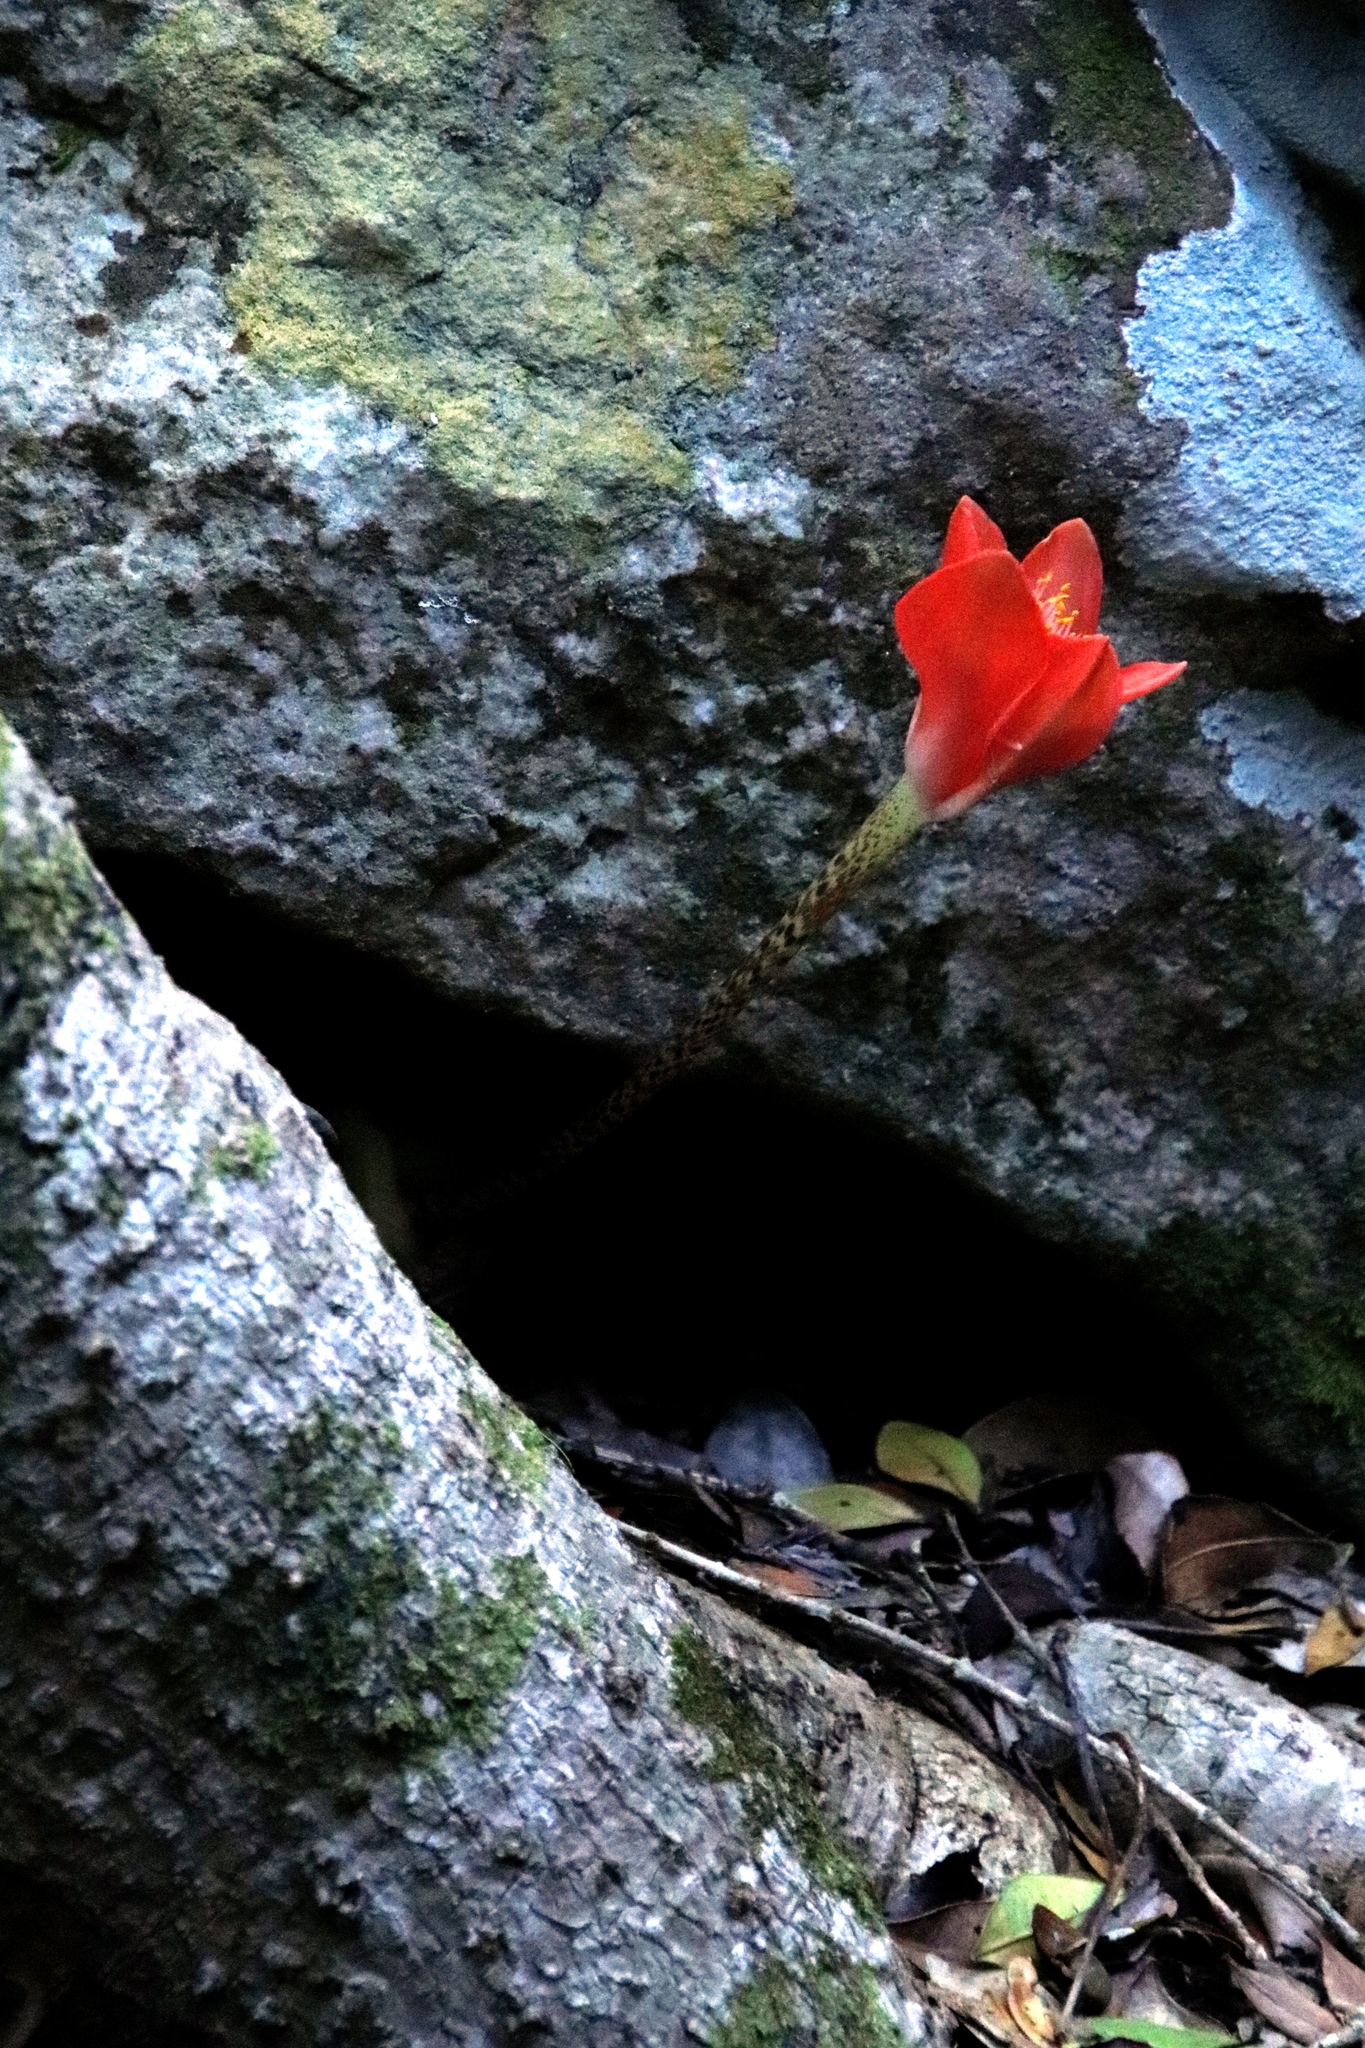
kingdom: Plantae
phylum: Tracheophyta
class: Liliopsida
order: Asparagales
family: Amaryllidaceae
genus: Haemanthus
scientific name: Haemanthus coccineus
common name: Cape-tulip
